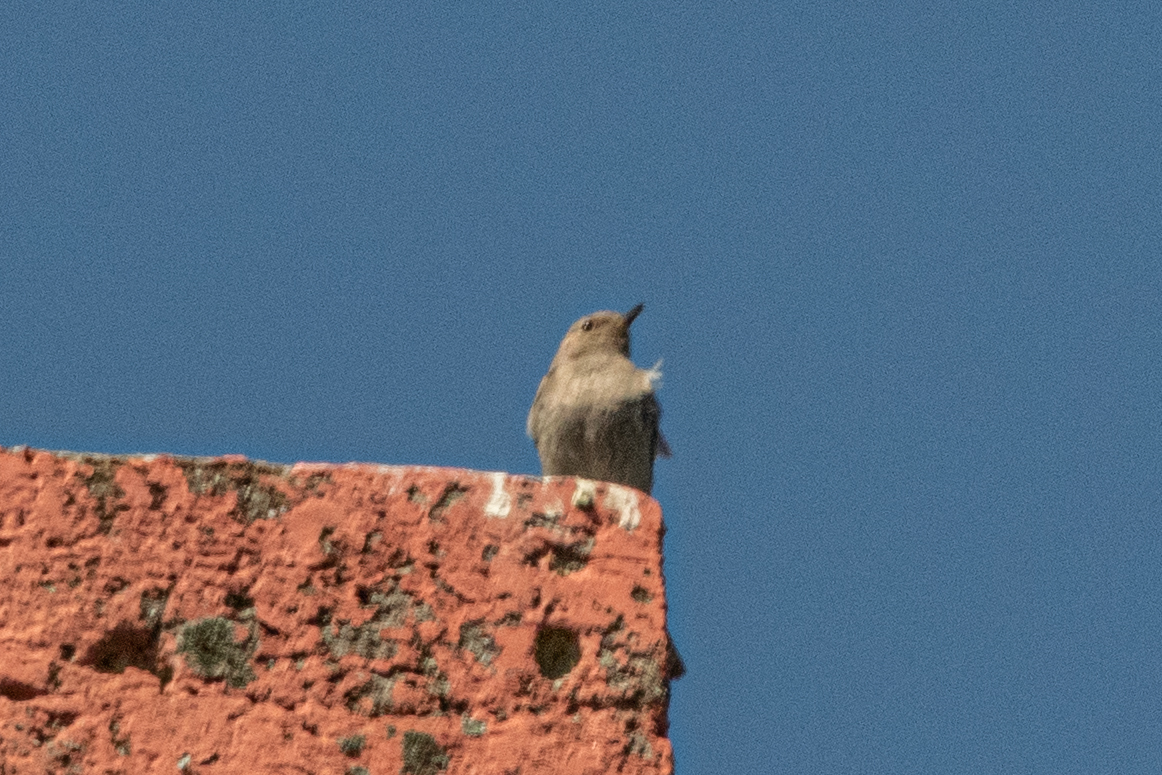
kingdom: Animalia
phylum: Chordata
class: Aves
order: Passeriformes
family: Muscicapidae
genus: Phoenicurus
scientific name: Phoenicurus ochruros
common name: Black redstart
